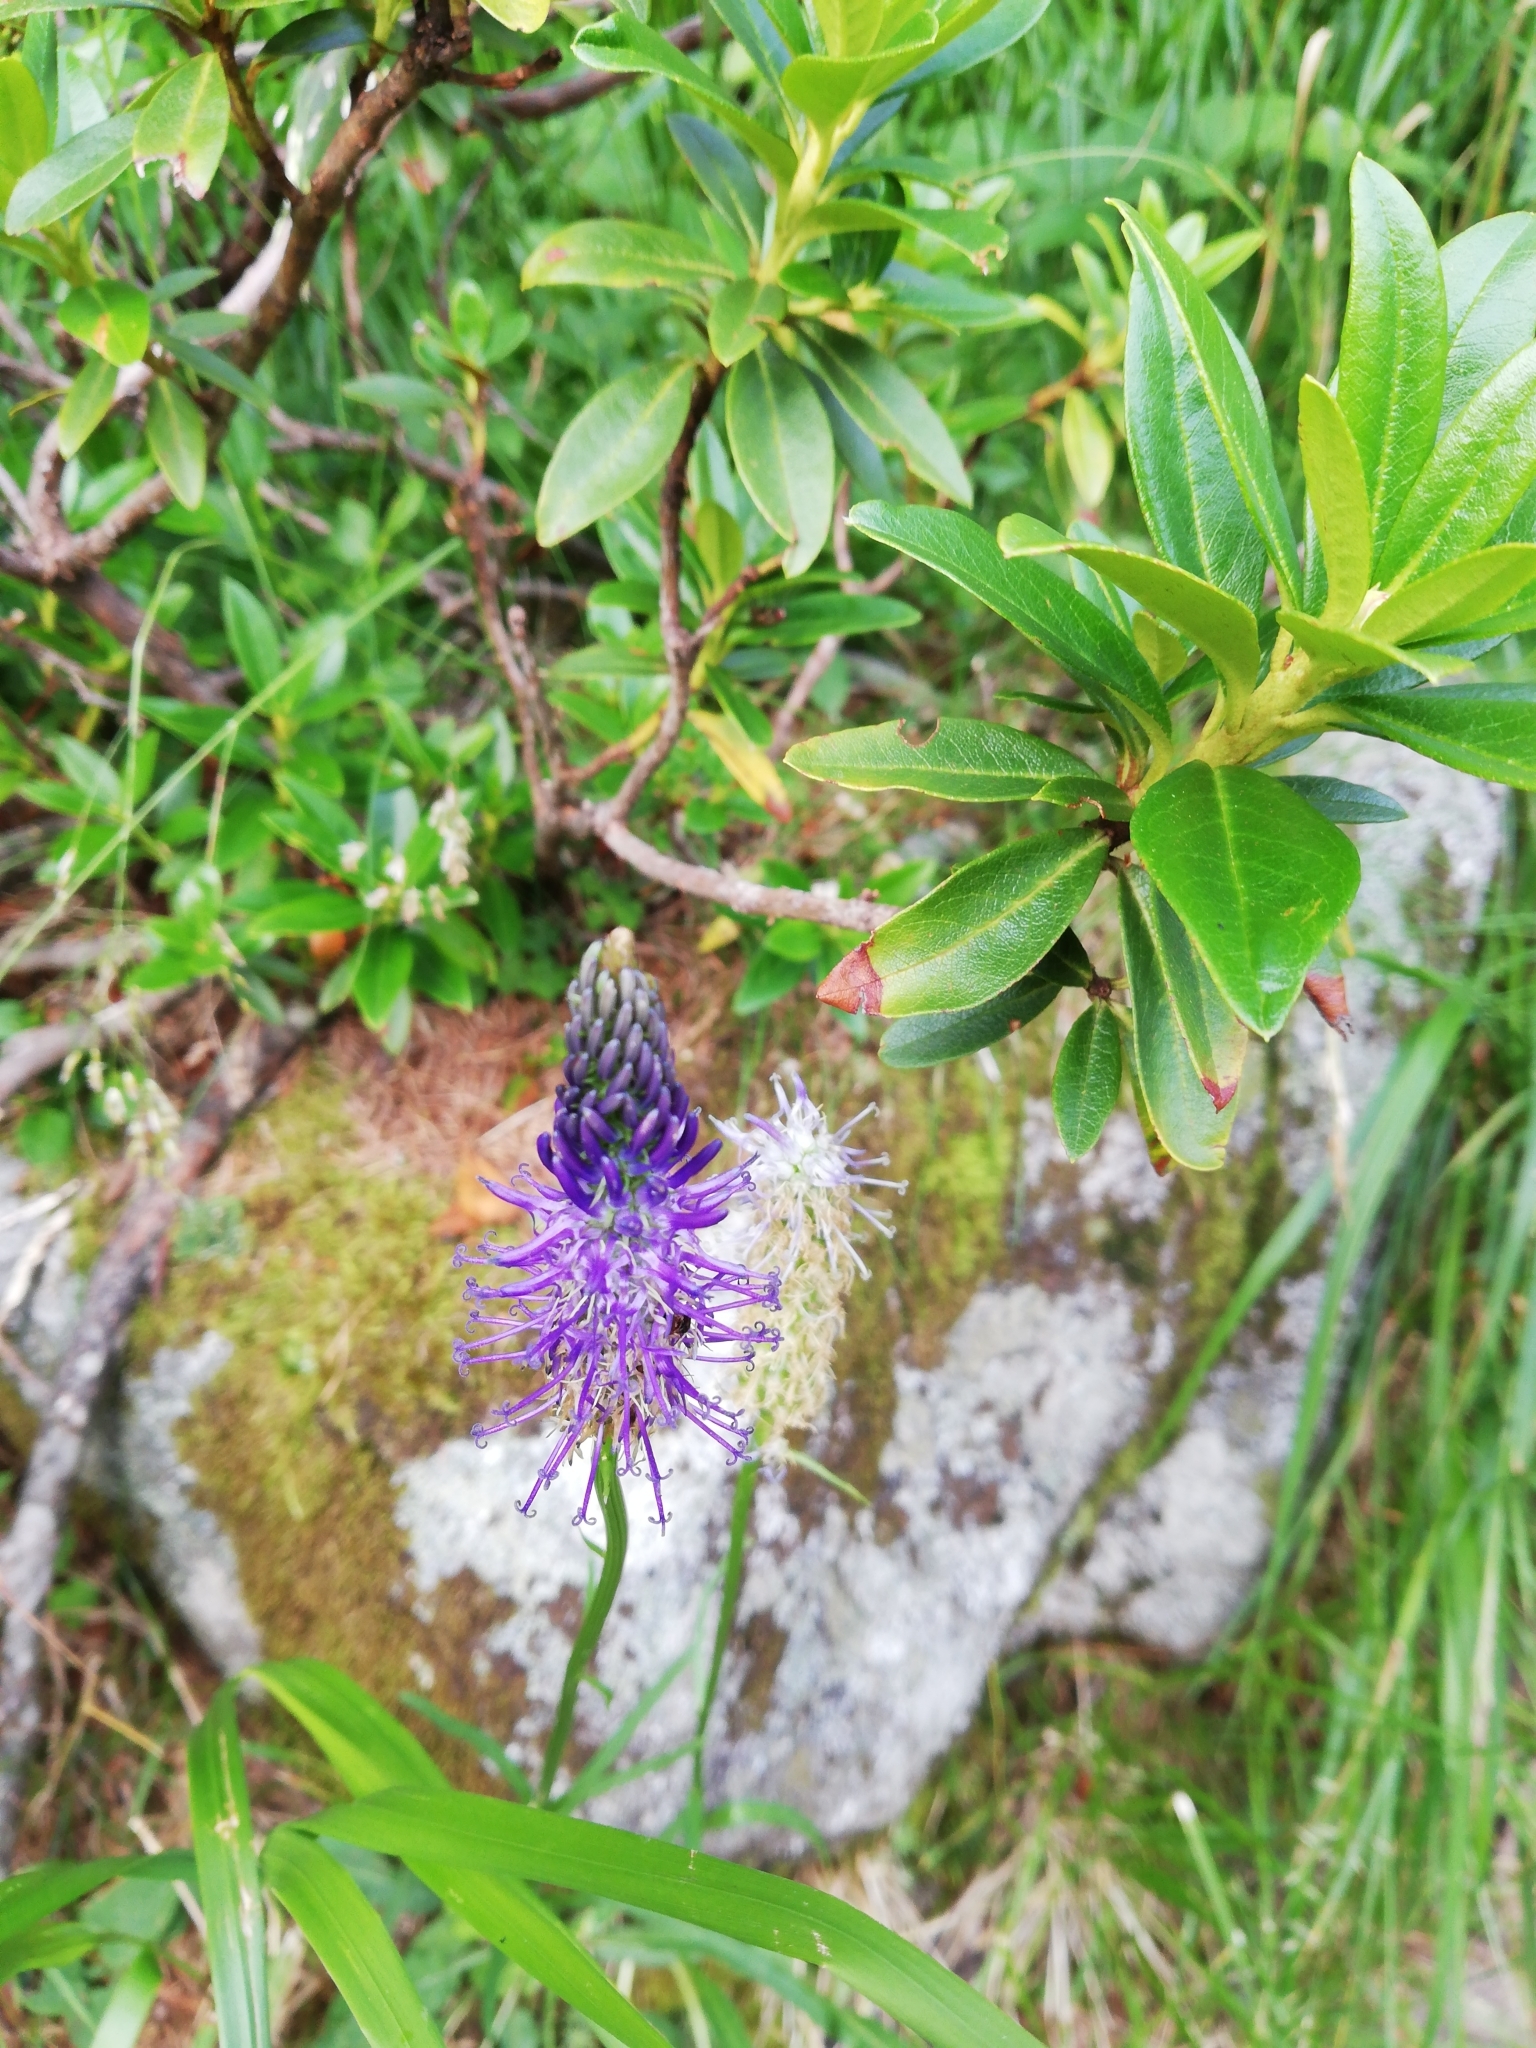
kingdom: Plantae
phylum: Tracheophyta
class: Magnoliopsida
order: Asterales
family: Campanulaceae
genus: Phyteuma
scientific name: Phyteuma betonicifolium
